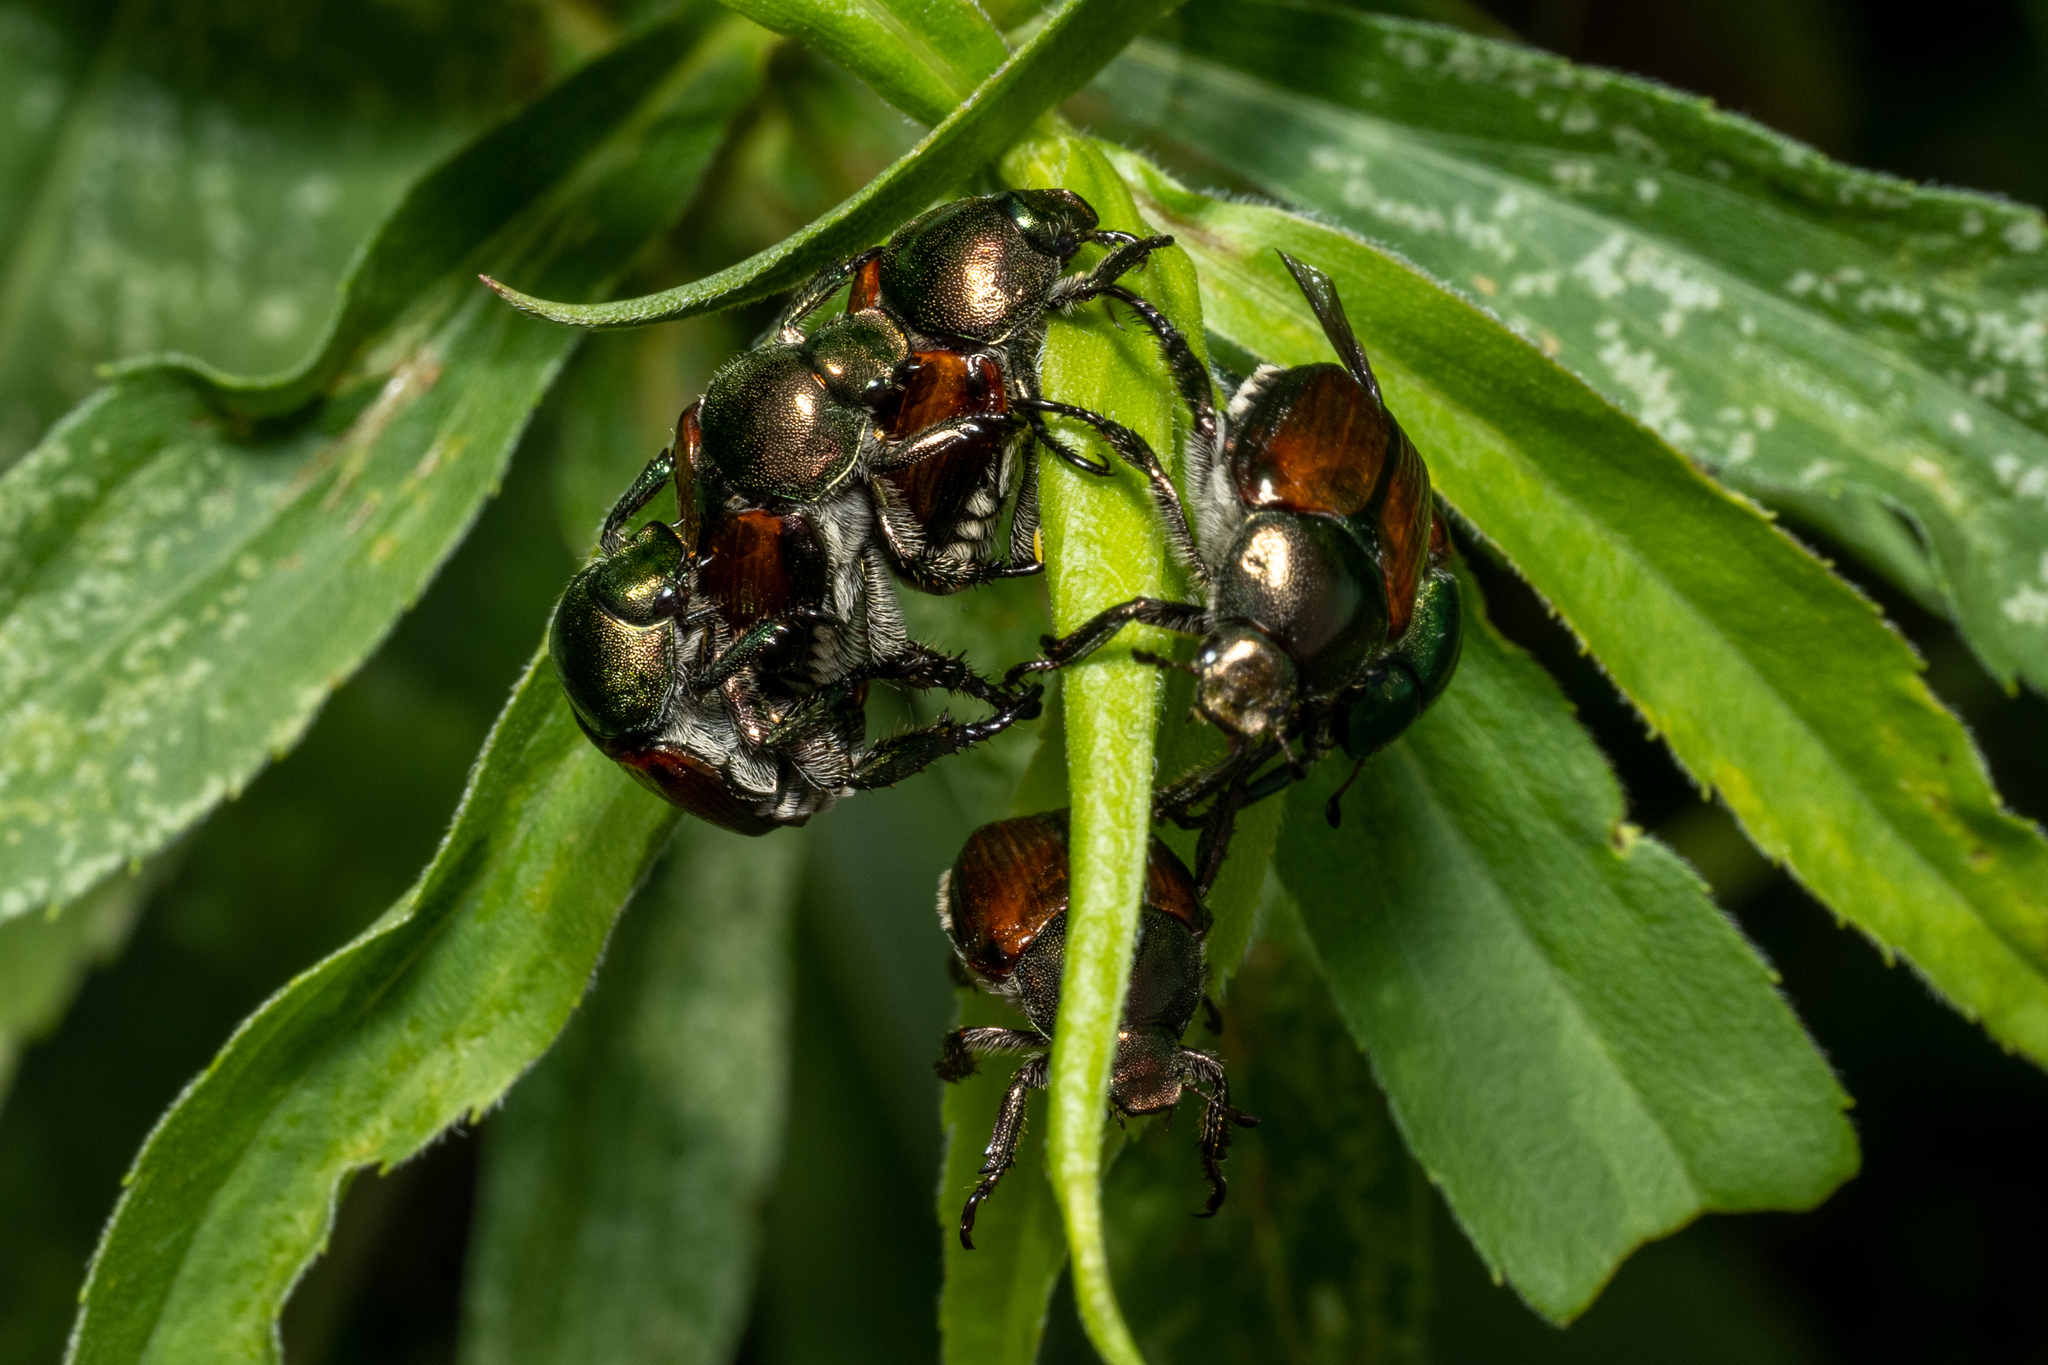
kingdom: Animalia
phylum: Arthropoda
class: Insecta
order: Coleoptera
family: Scarabaeidae
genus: Popillia
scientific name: Popillia japonica
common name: Japanese beetle
